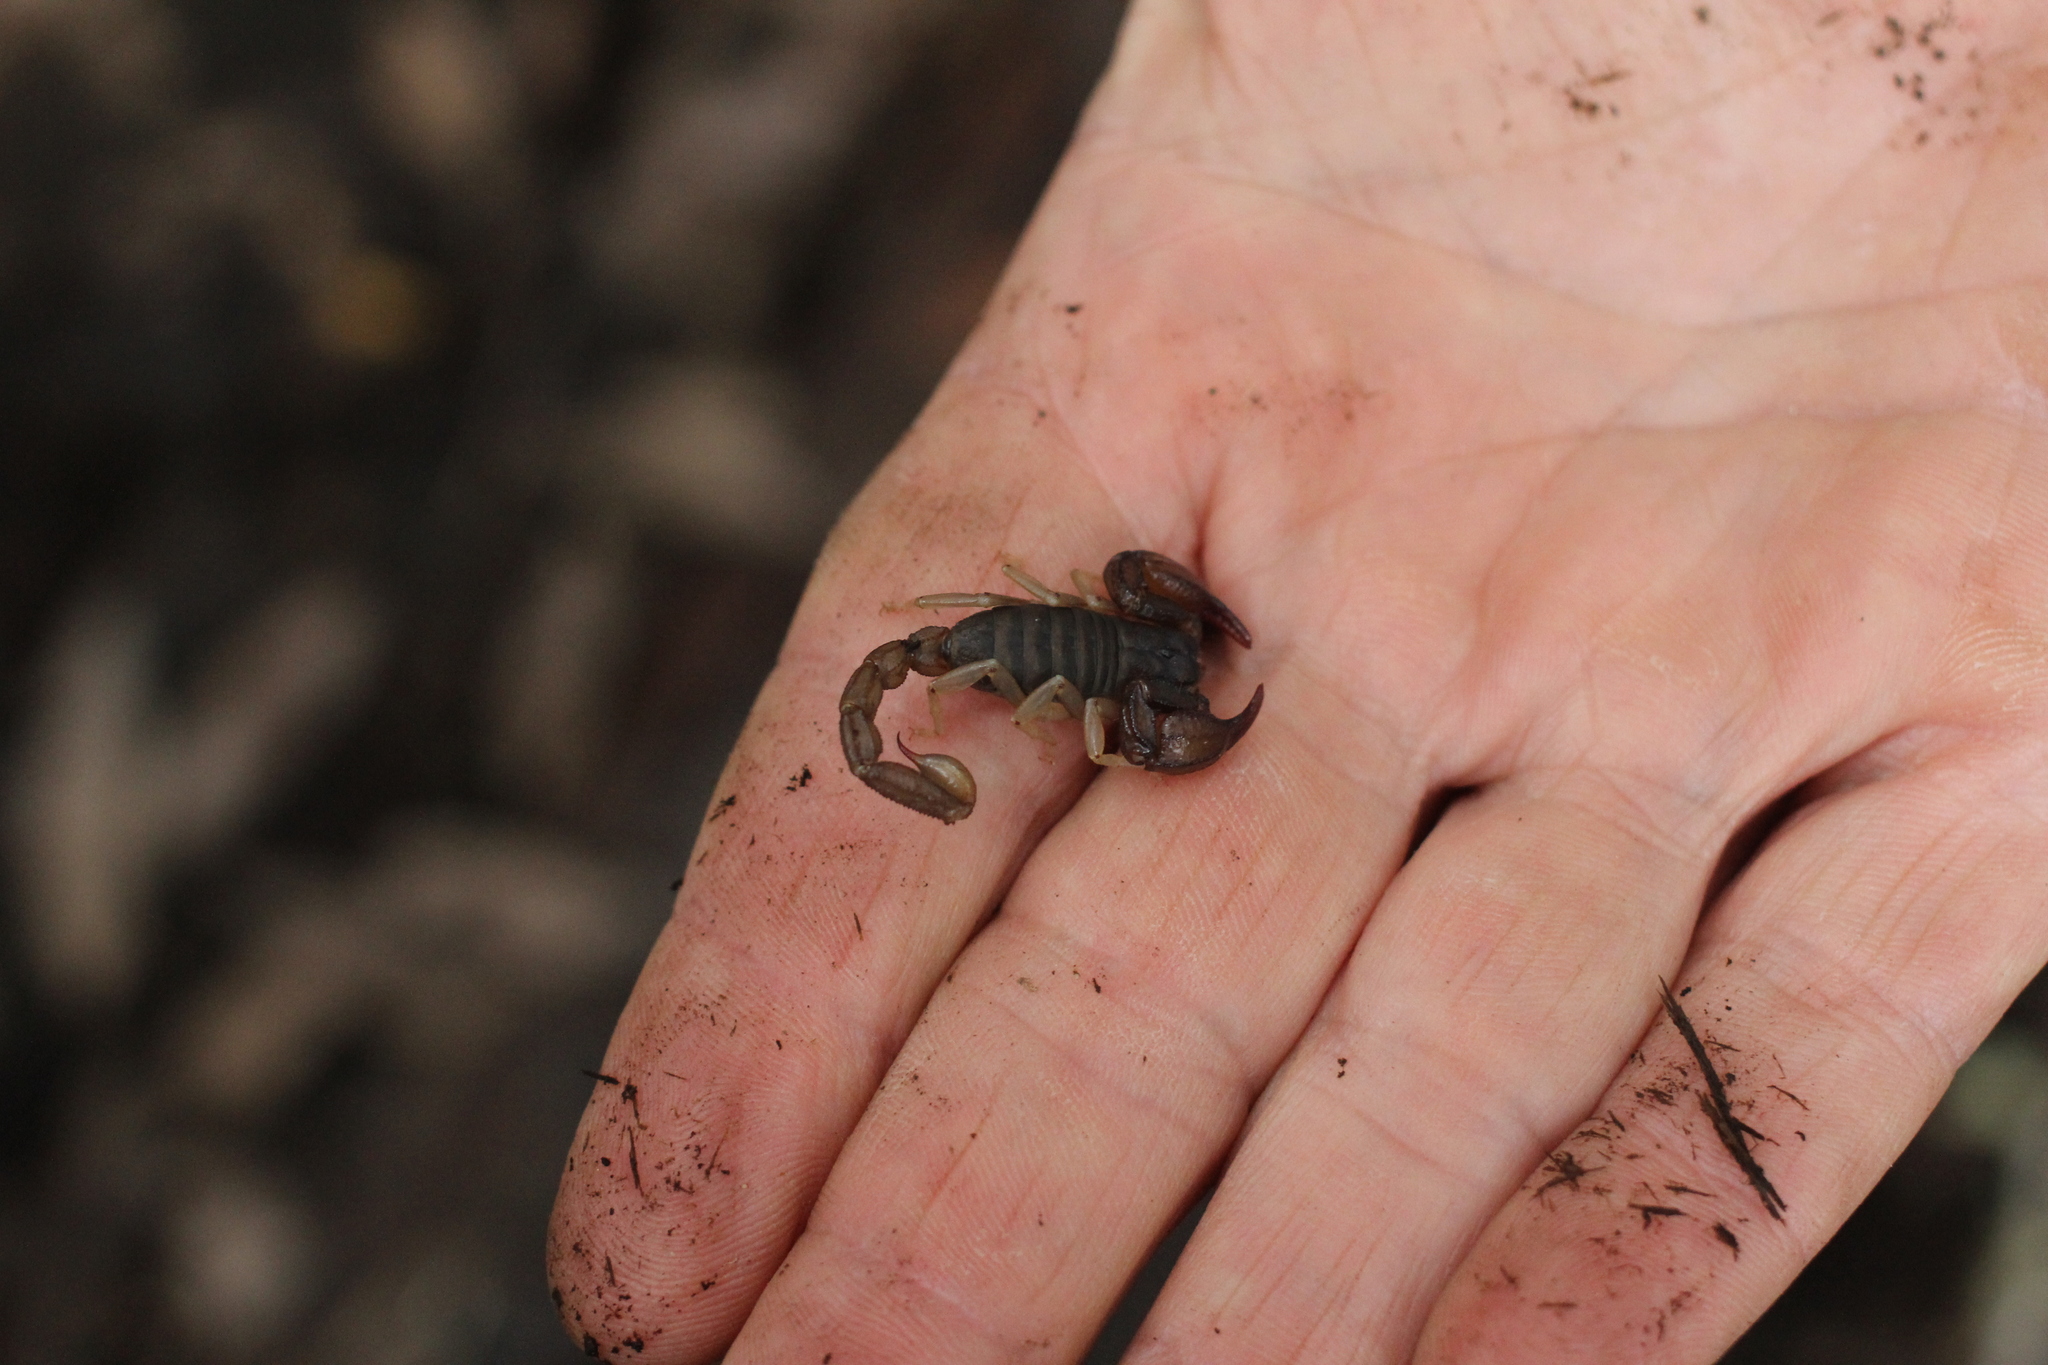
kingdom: Animalia
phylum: Arthropoda
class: Arachnida
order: Scorpiones
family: Chactidae
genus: Uroctonus
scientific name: Uroctonus mordax
